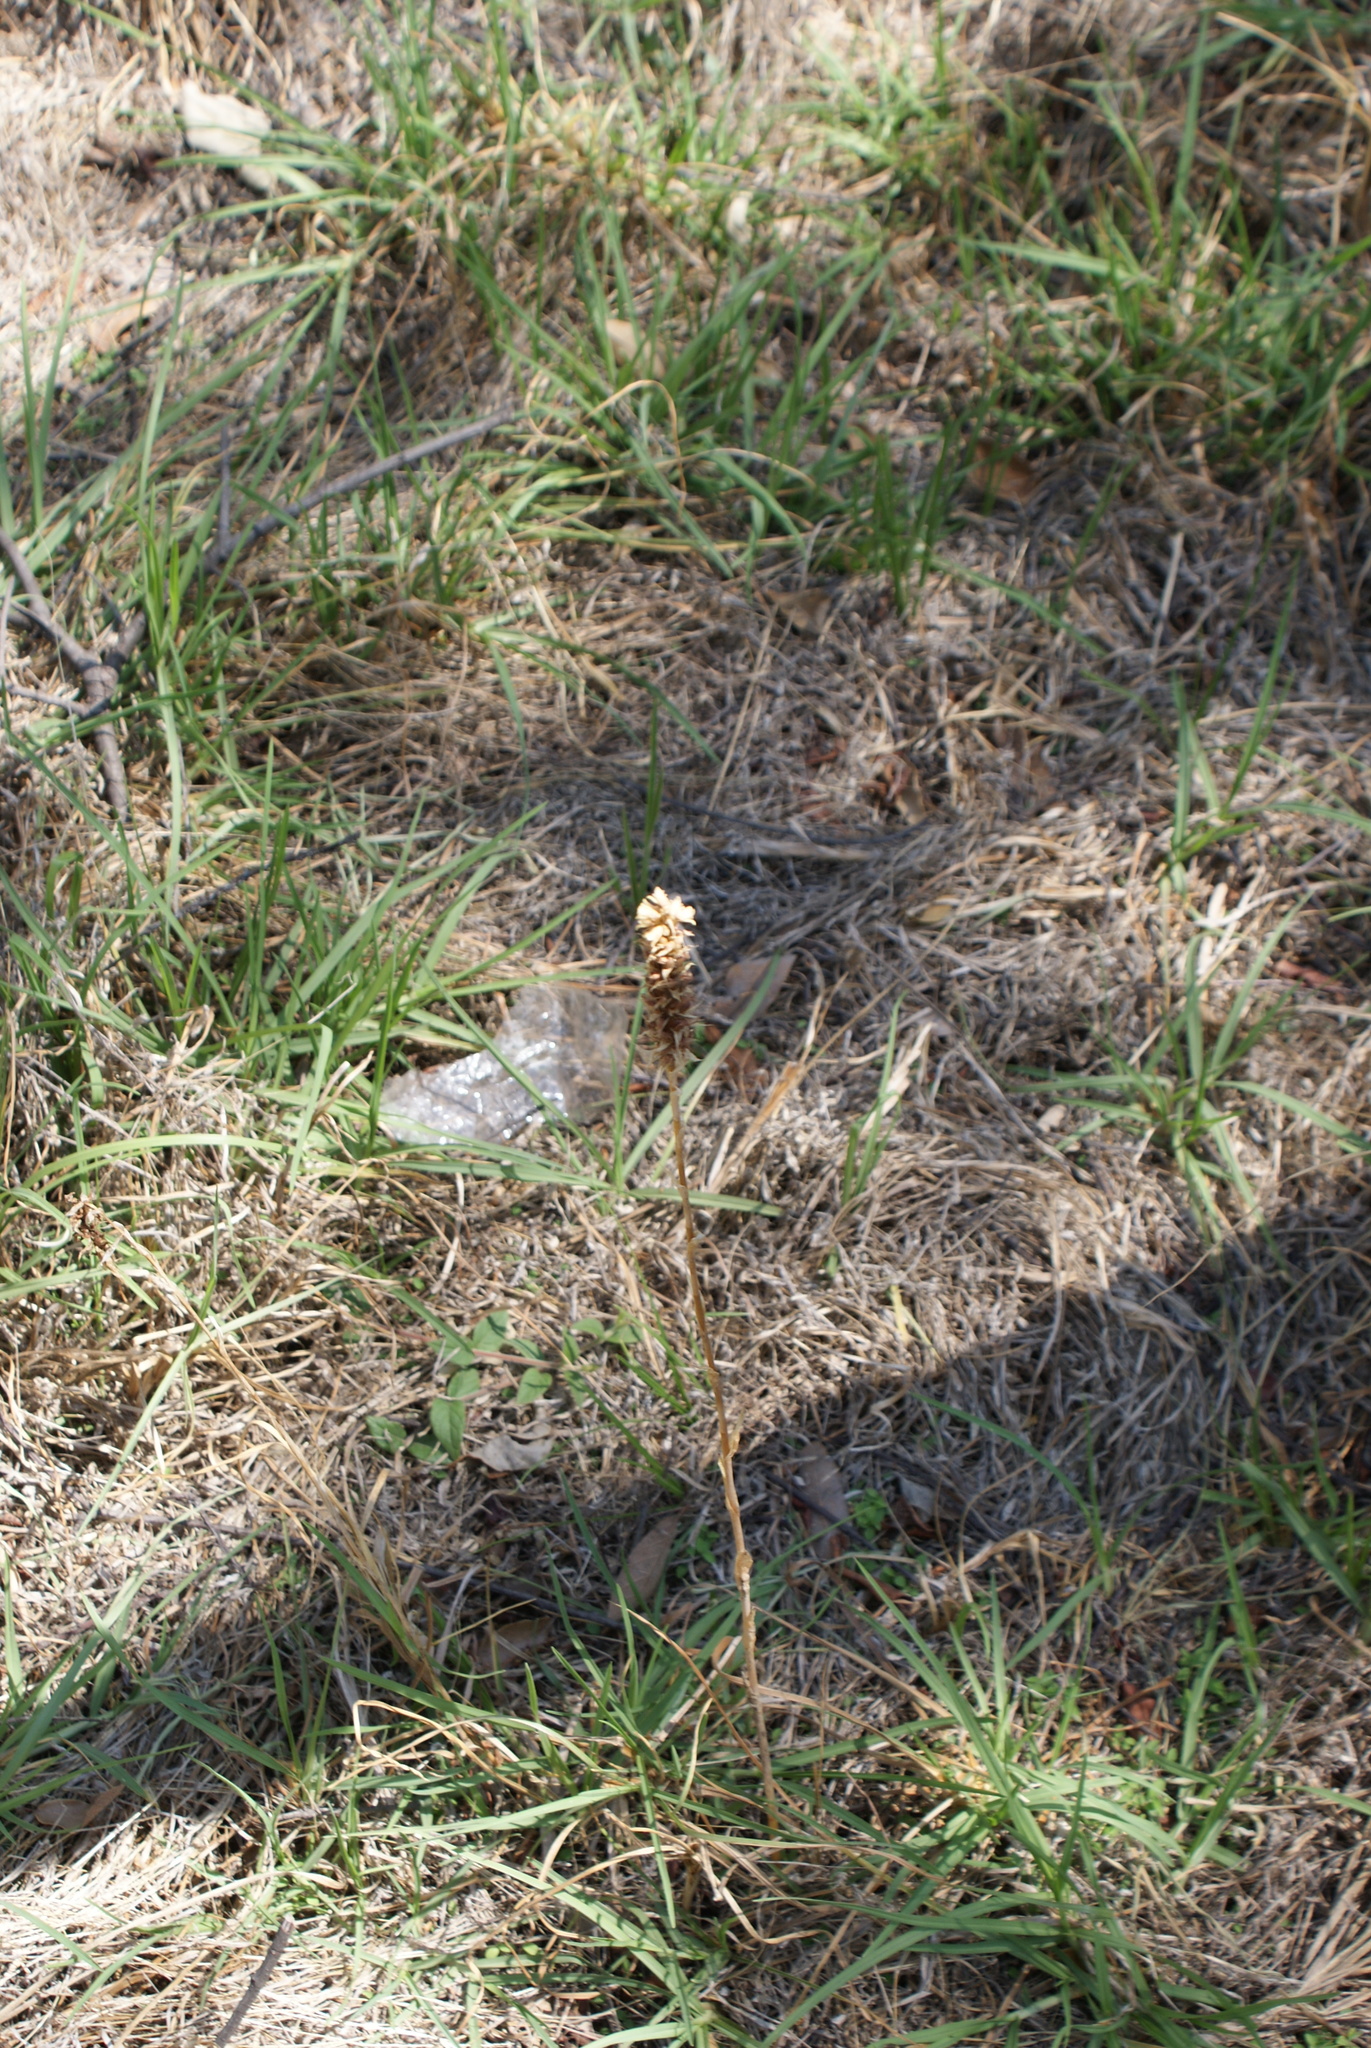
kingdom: Plantae
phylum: Tracheophyta
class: Liliopsida
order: Asparagales
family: Orchidaceae
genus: Aulosepalum
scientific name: Aulosepalum pyramidale
